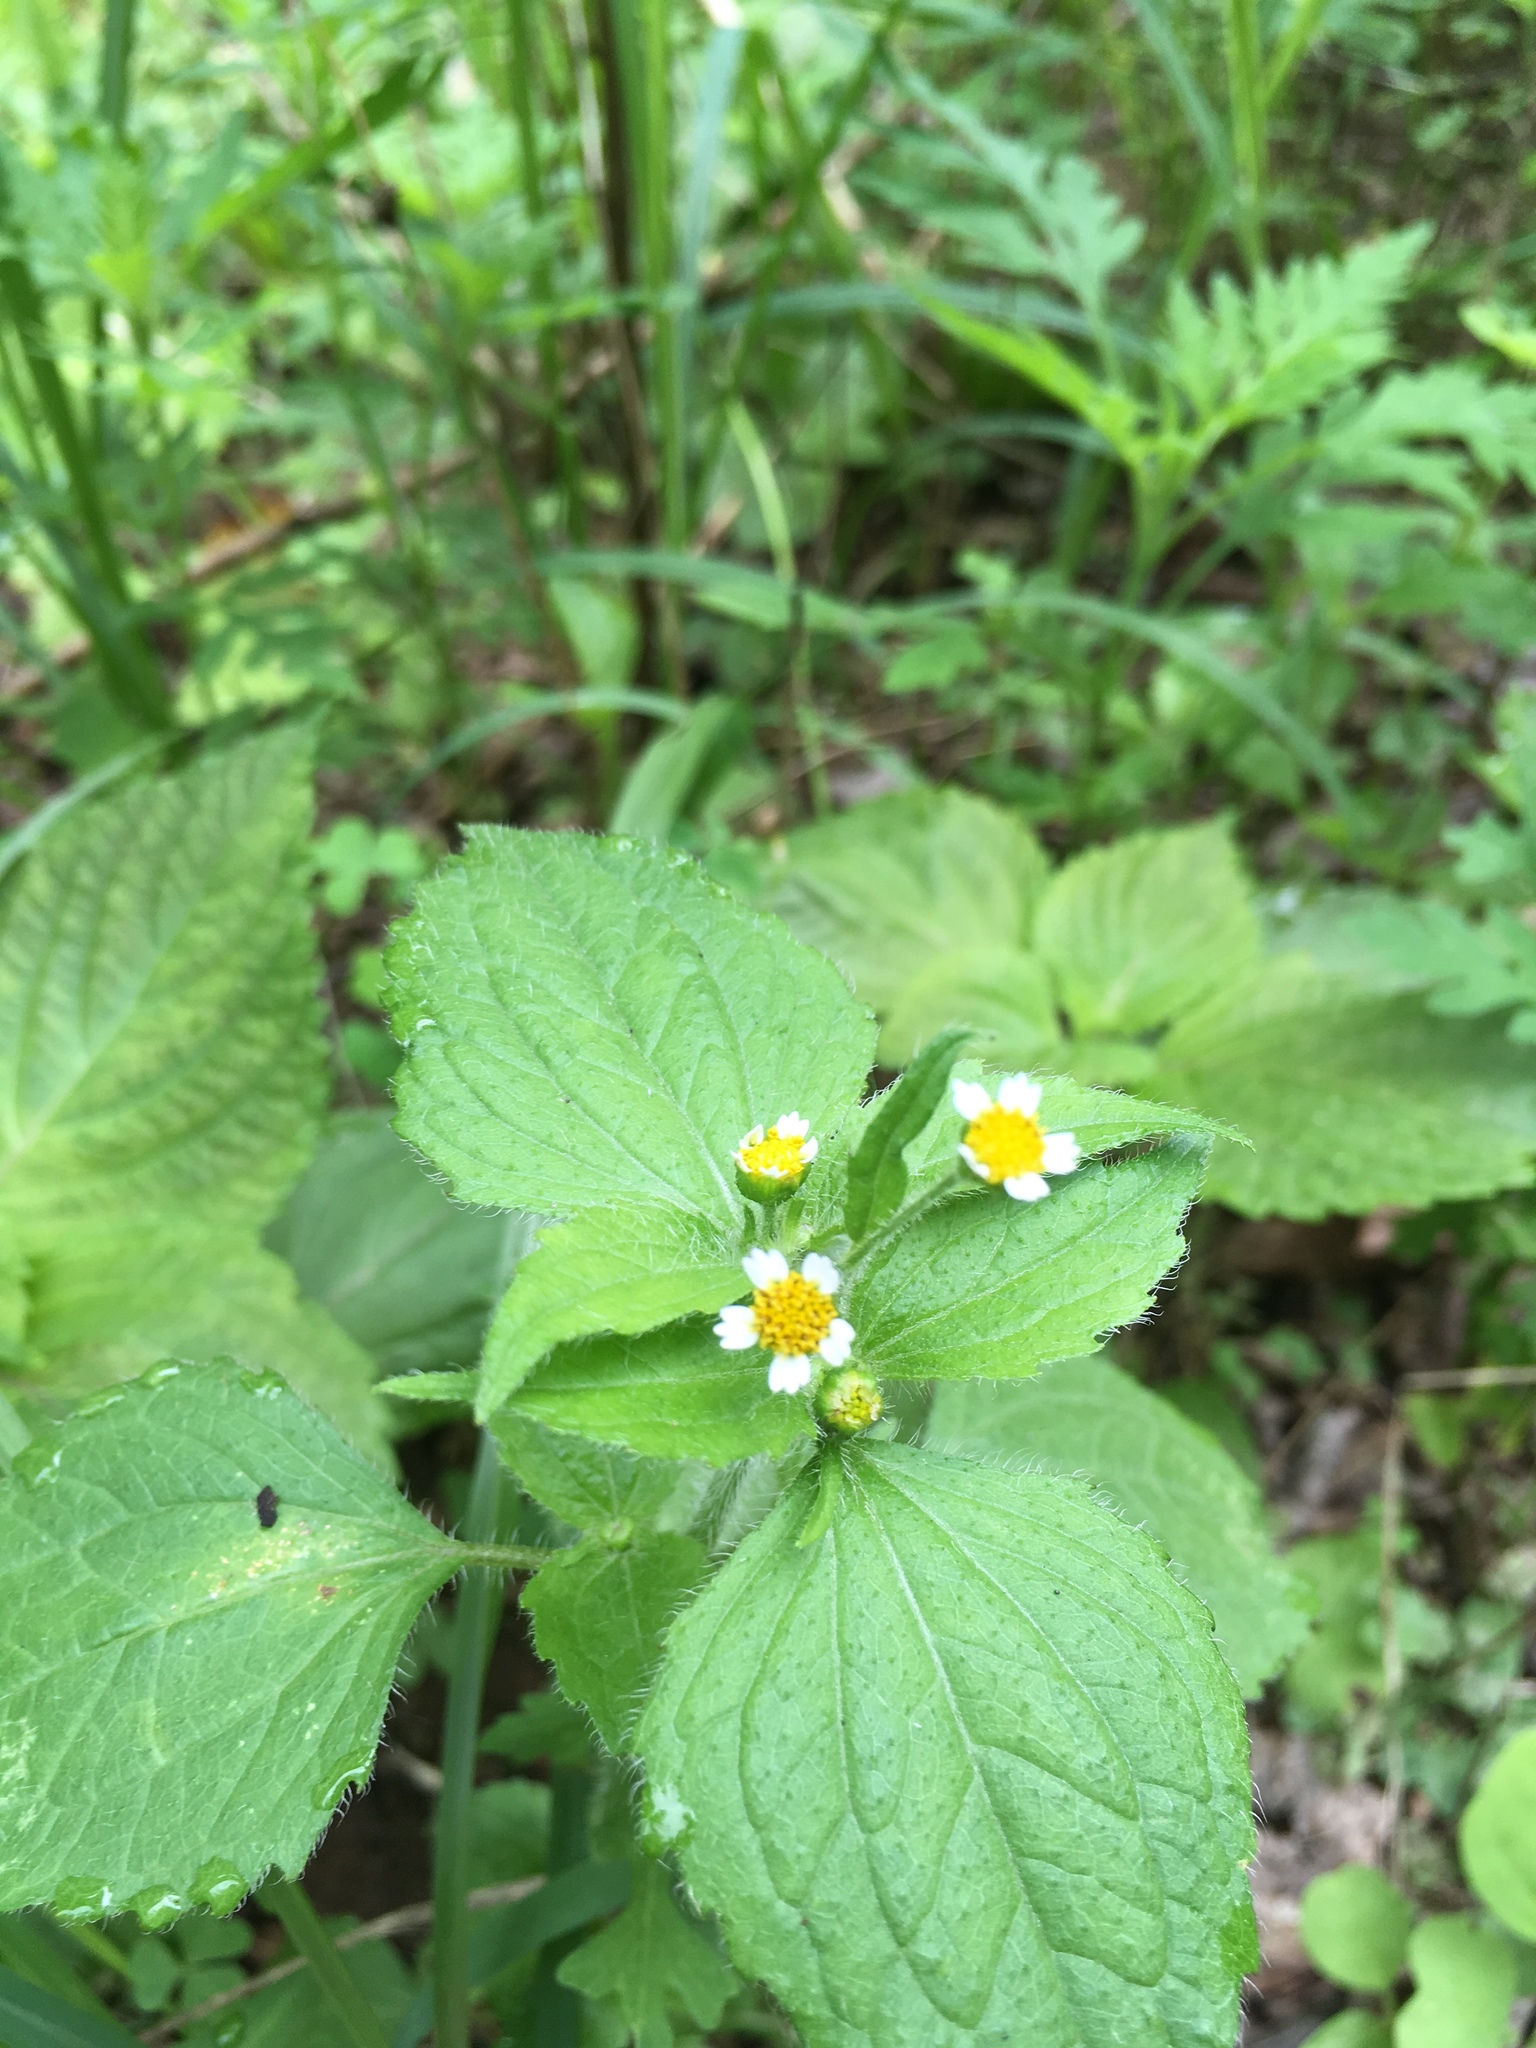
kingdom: Plantae
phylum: Tracheophyta
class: Magnoliopsida
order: Asterales
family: Asteraceae
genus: Galinsoga
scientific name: Galinsoga quadriradiata
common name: Shaggy soldier
